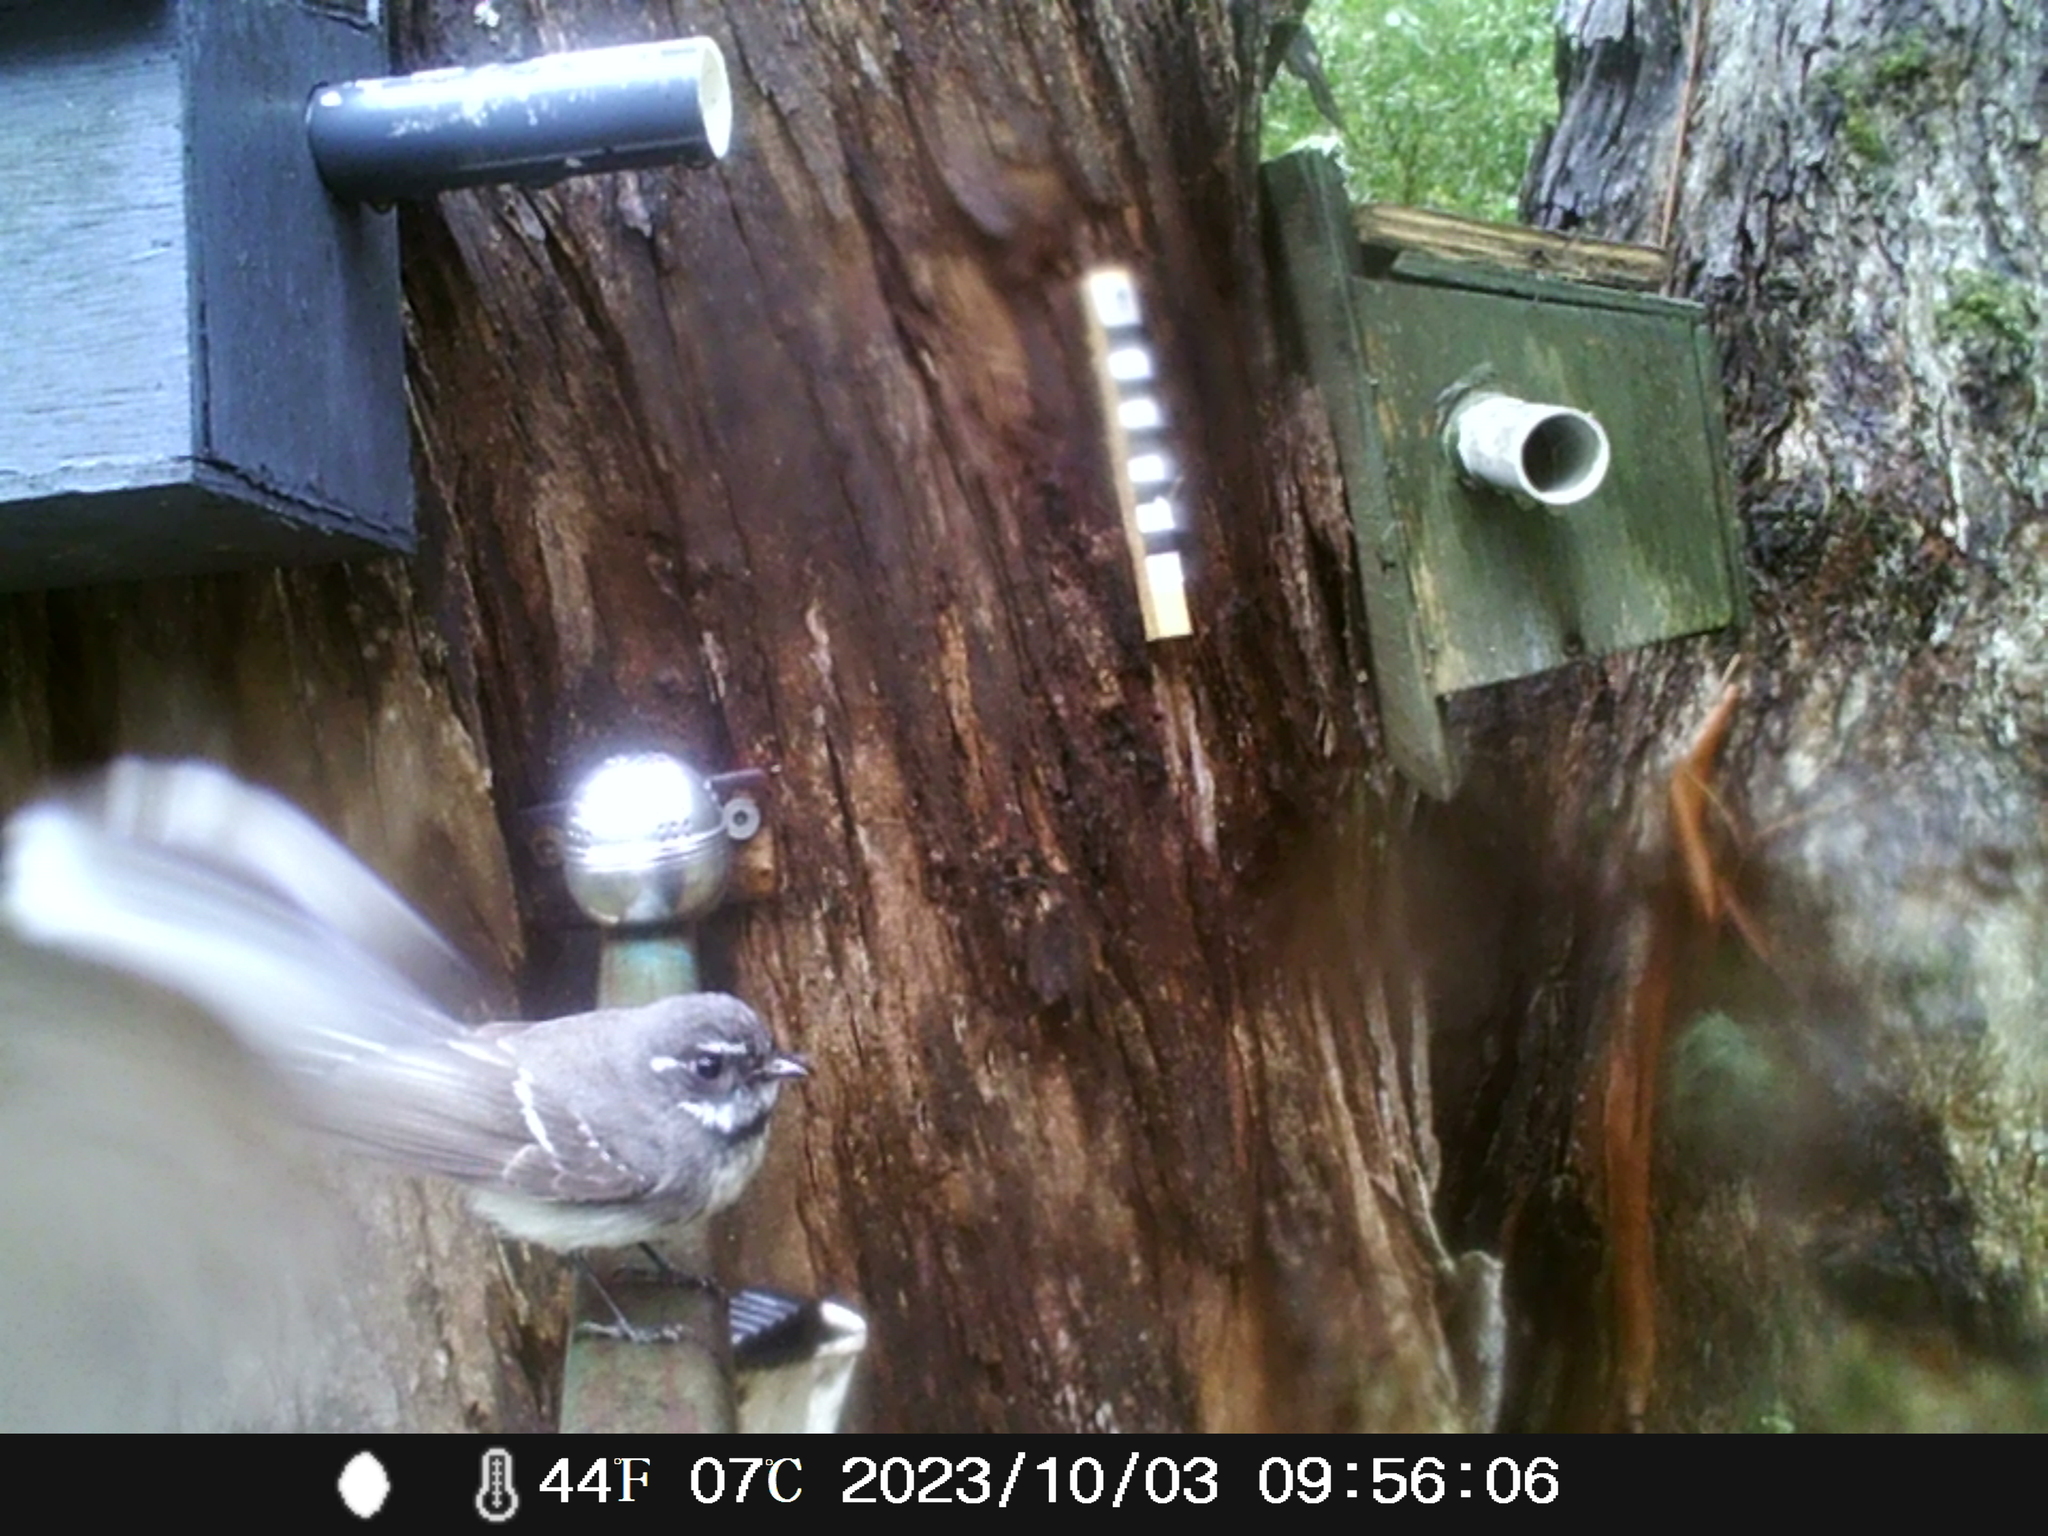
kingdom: Animalia
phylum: Chordata
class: Aves
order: Passeriformes
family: Rhipiduridae
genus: Rhipidura
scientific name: Rhipidura albiscapa
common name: Grey fantail
